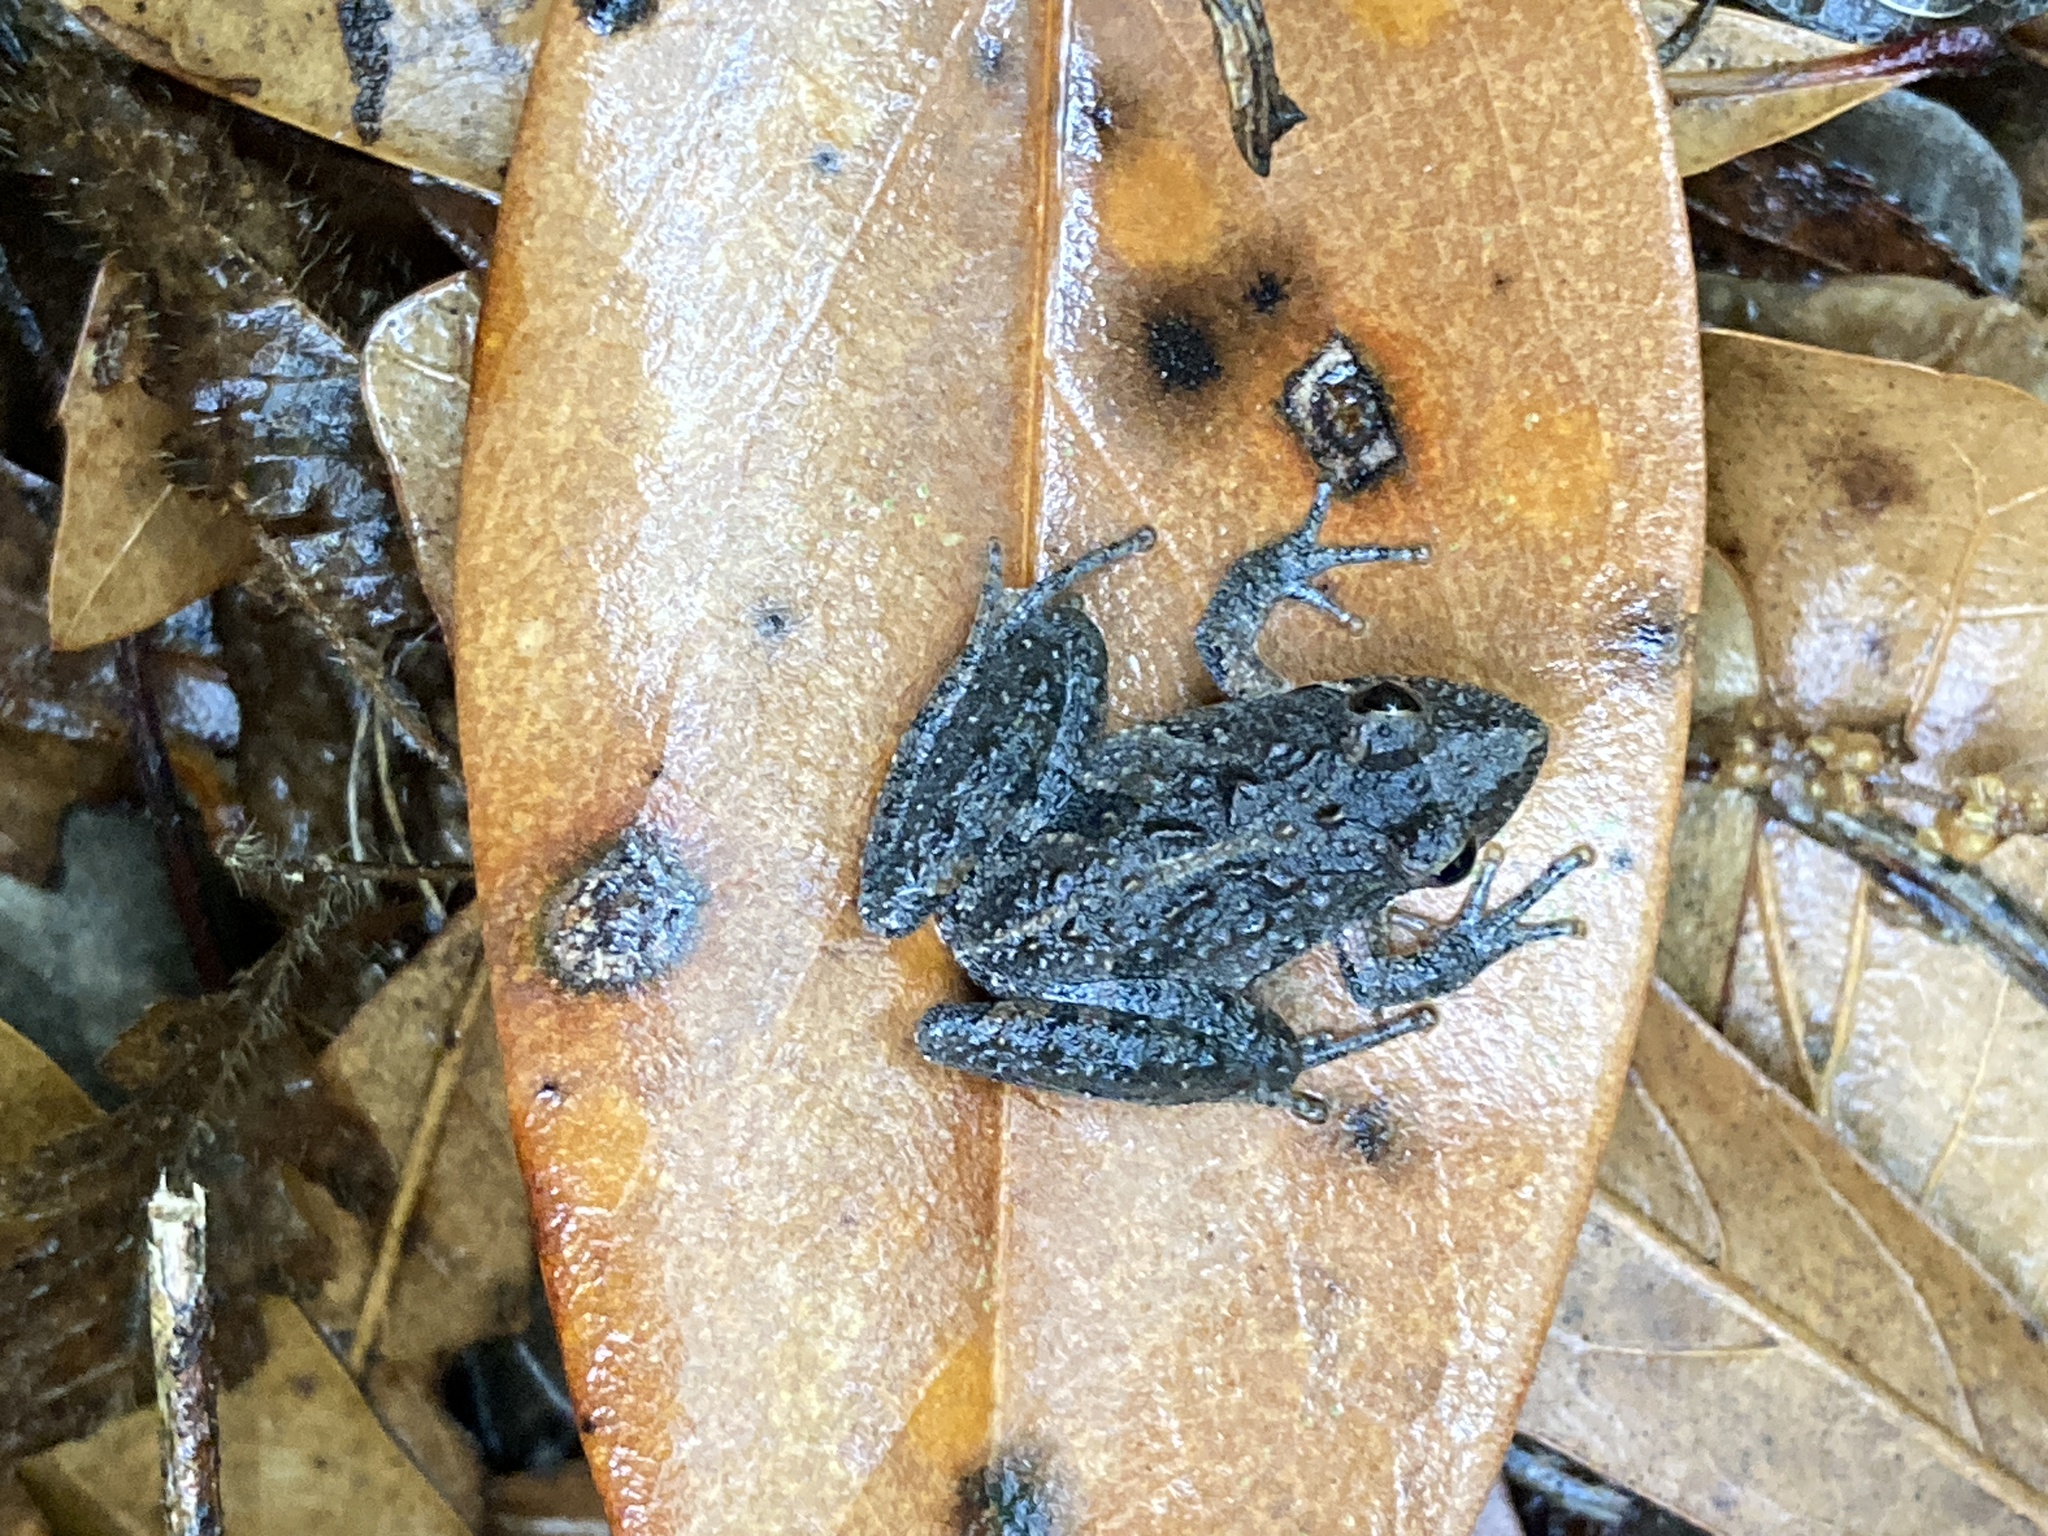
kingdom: Animalia
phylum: Chordata
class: Amphibia
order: Anura
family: Hylidae
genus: Acris
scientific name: Acris gryllus
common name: Southern cricket frog
